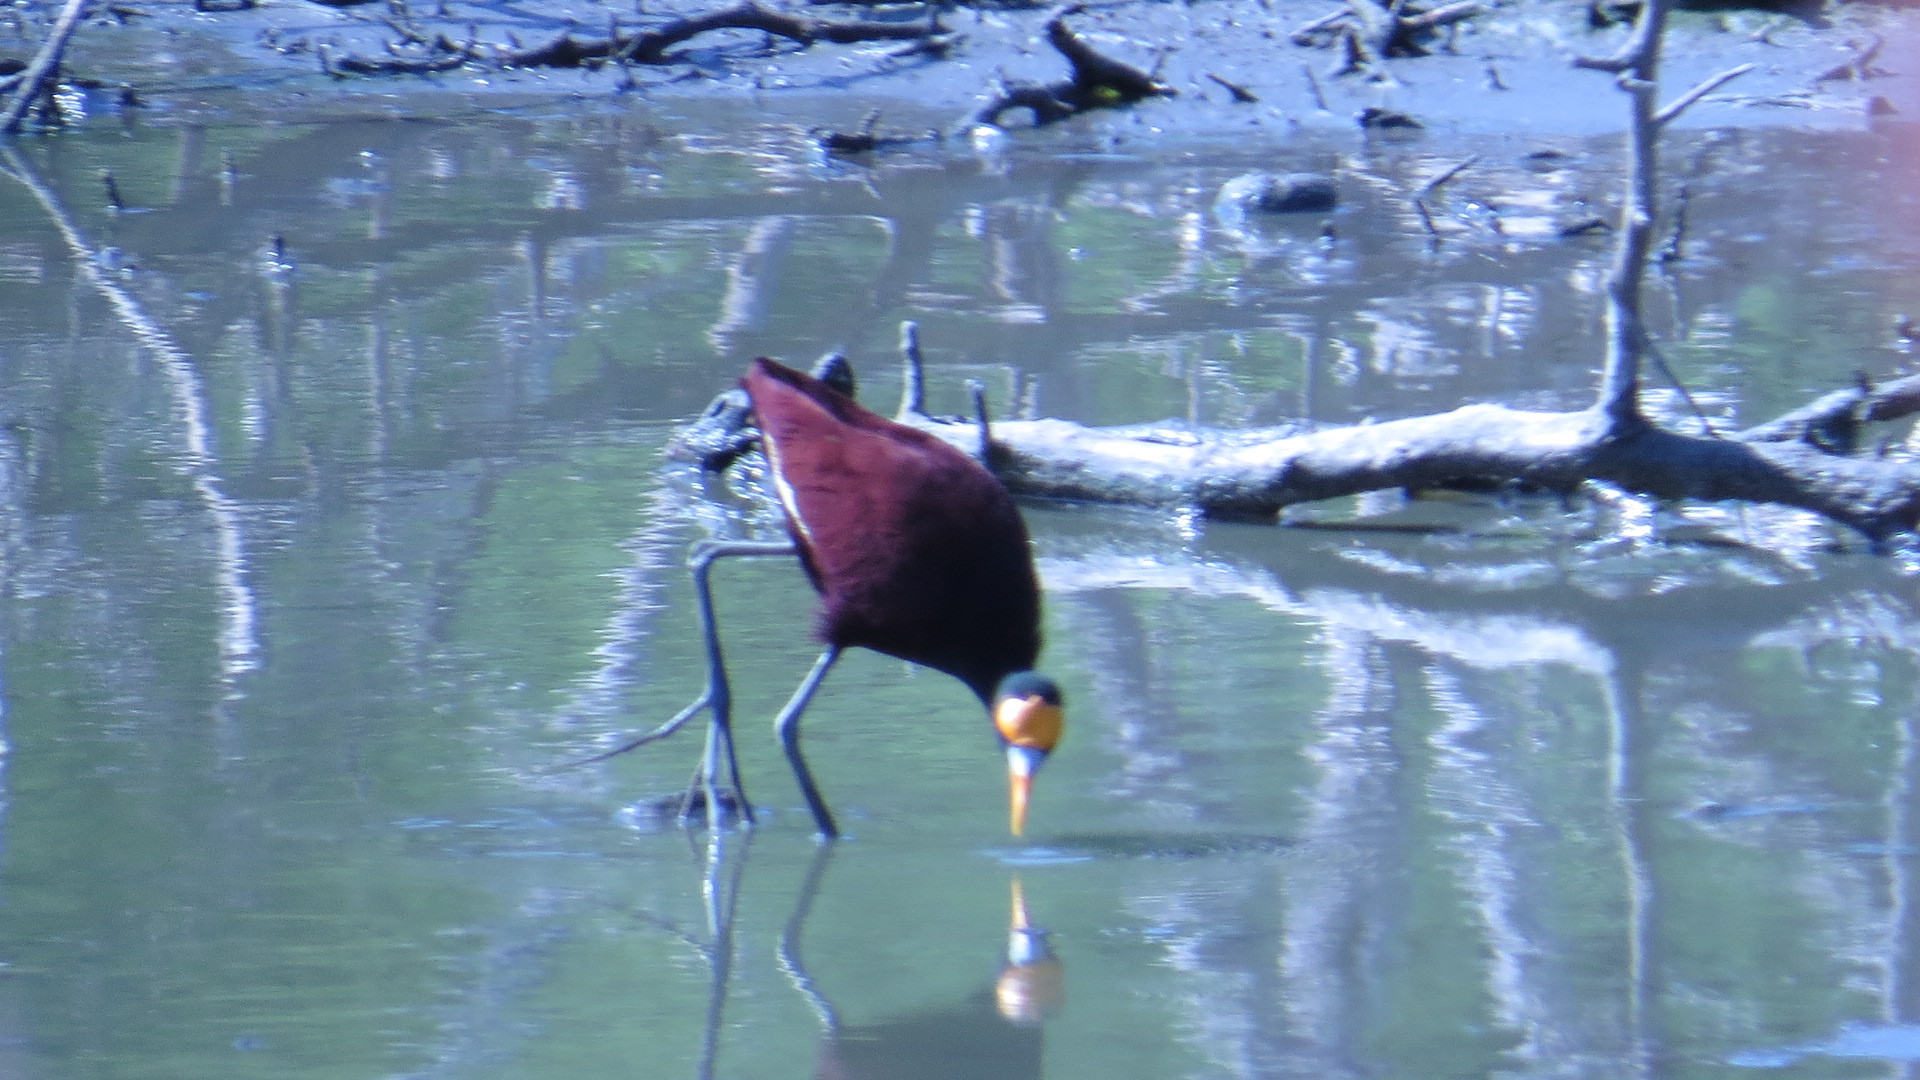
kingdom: Animalia
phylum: Chordata
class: Aves
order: Charadriiformes
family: Jacanidae
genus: Jacana
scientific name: Jacana spinosa
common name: Northern jacana
